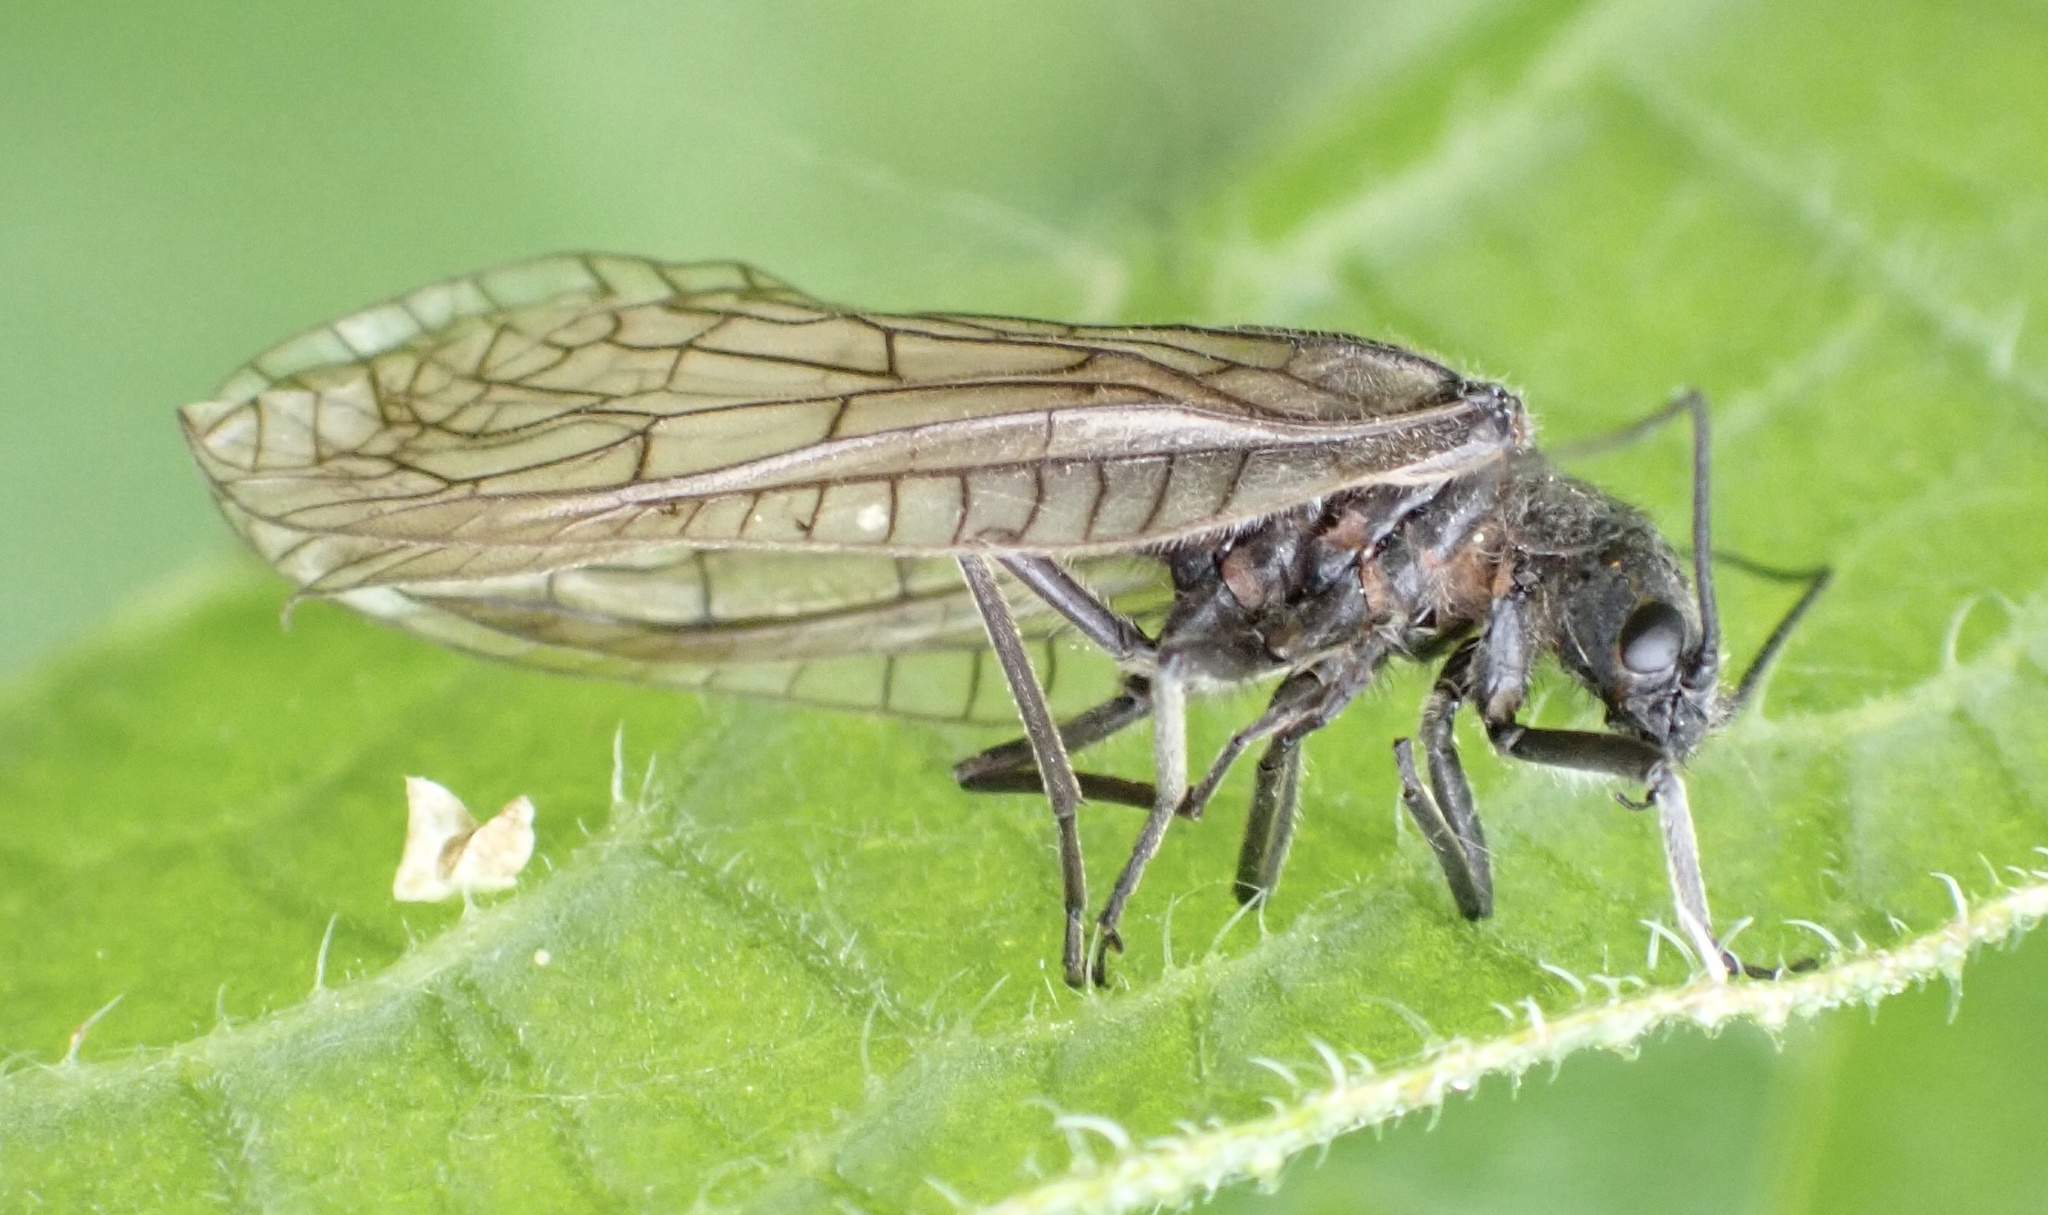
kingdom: Animalia
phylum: Arthropoda
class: Insecta
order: Megaloptera
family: Sialidae
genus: Sialis
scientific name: Sialis
